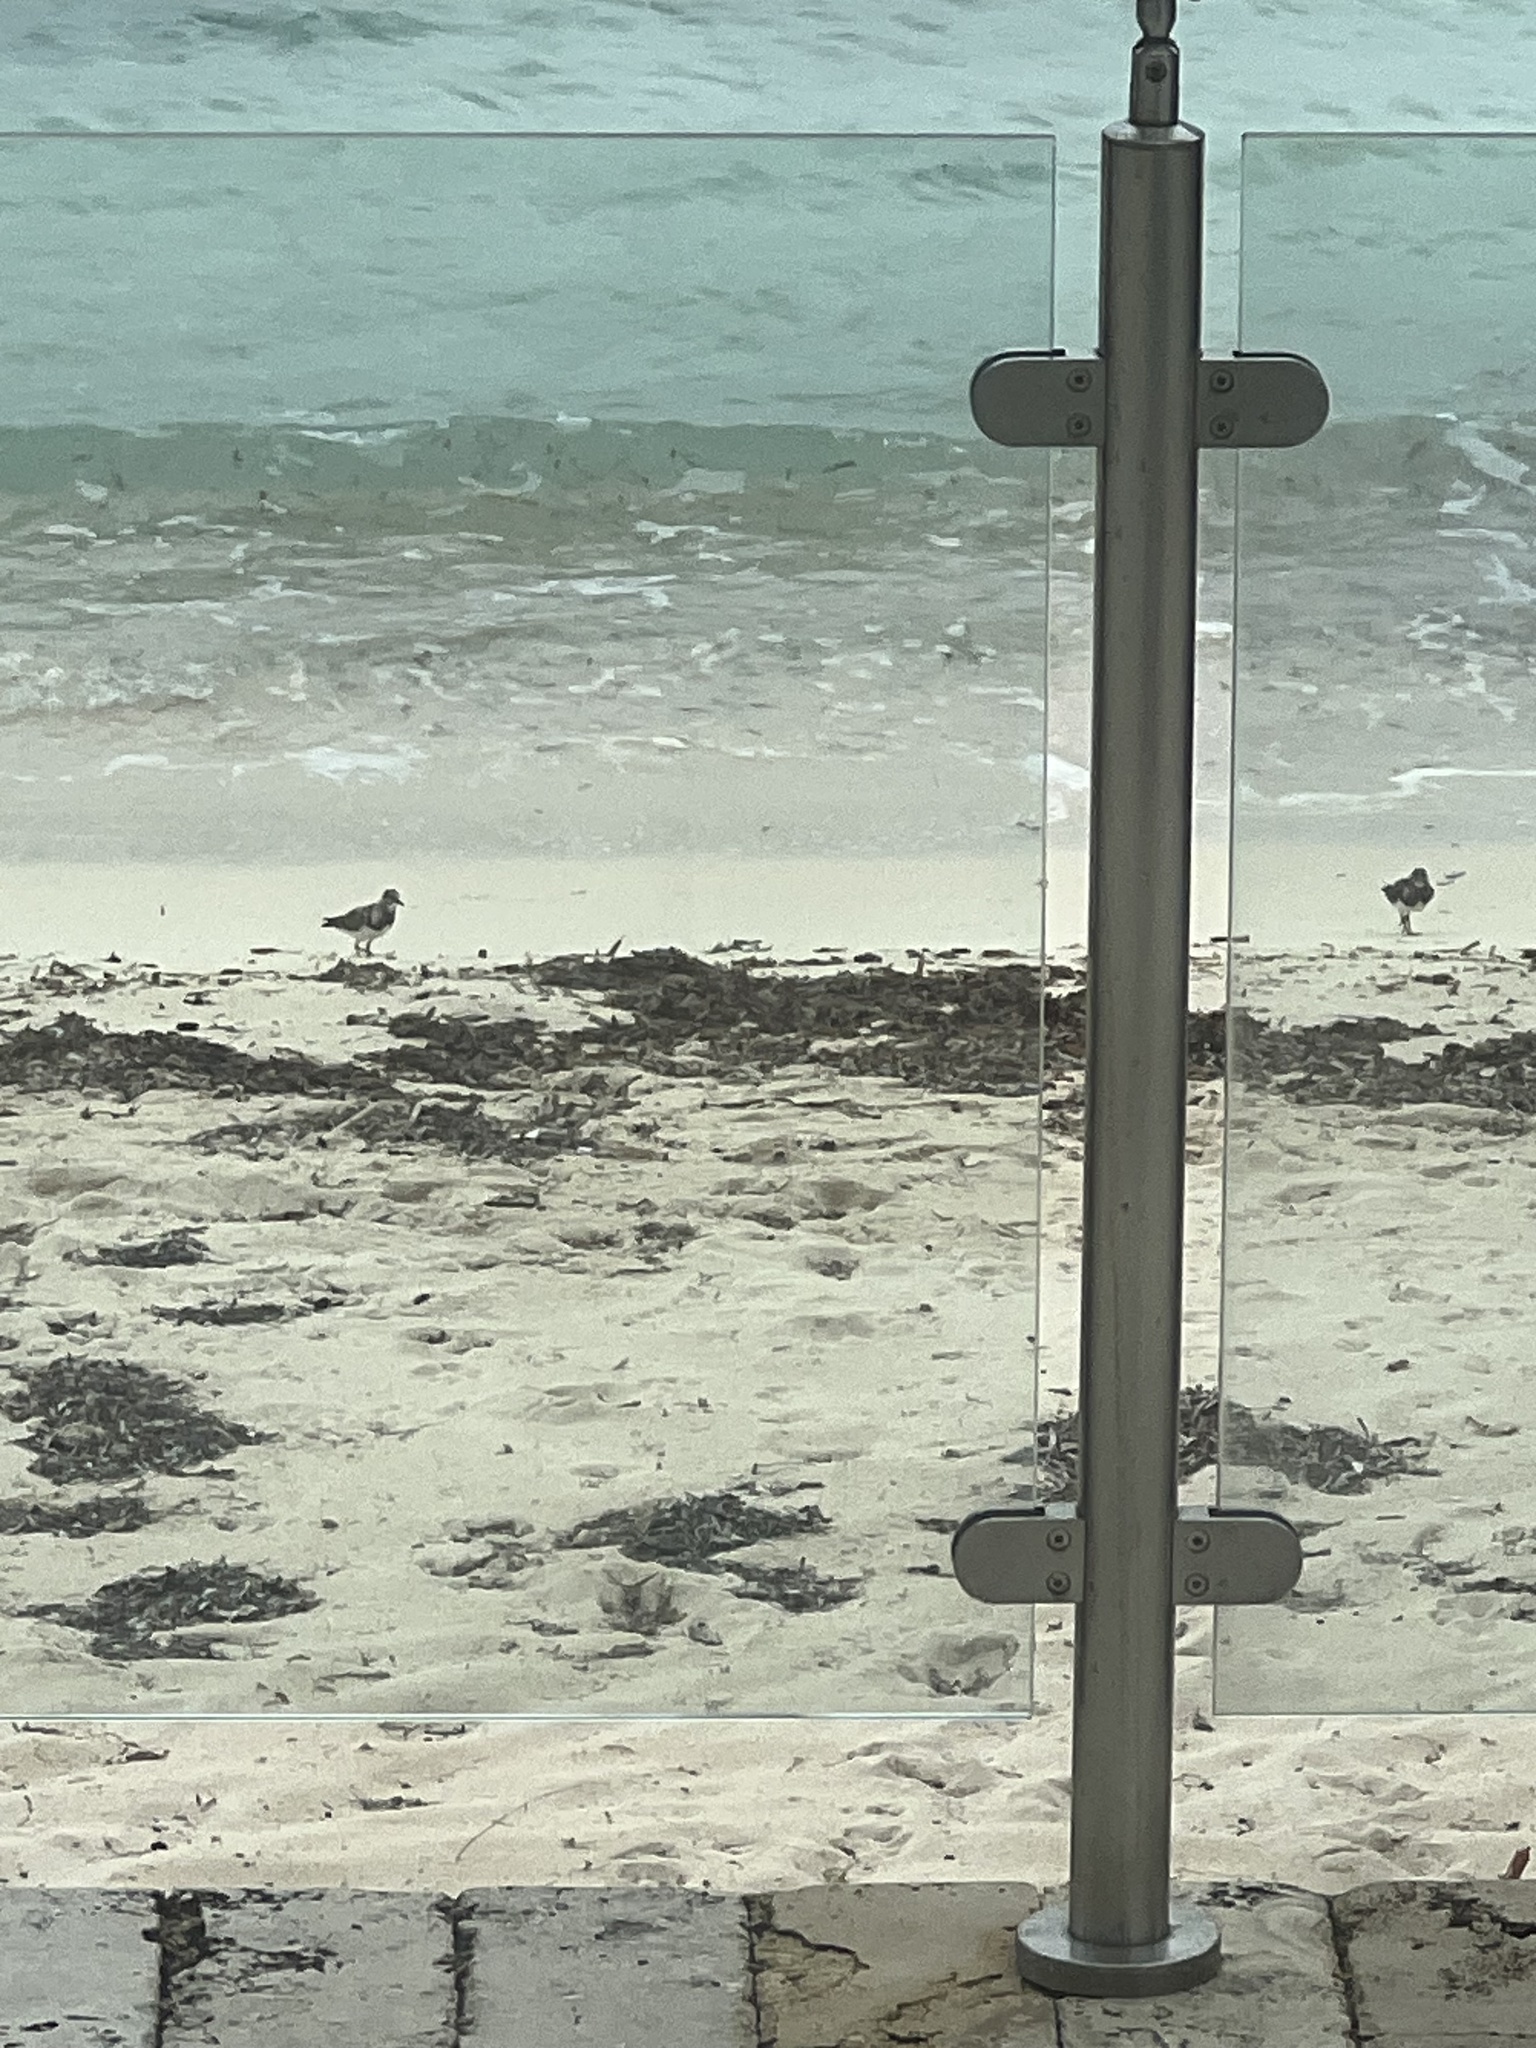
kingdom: Animalia
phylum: Chordata
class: Aves
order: Charadriiformes
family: Scolopacidae
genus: Arenaria
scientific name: Arenaria interpres
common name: Ruddy turnstone
